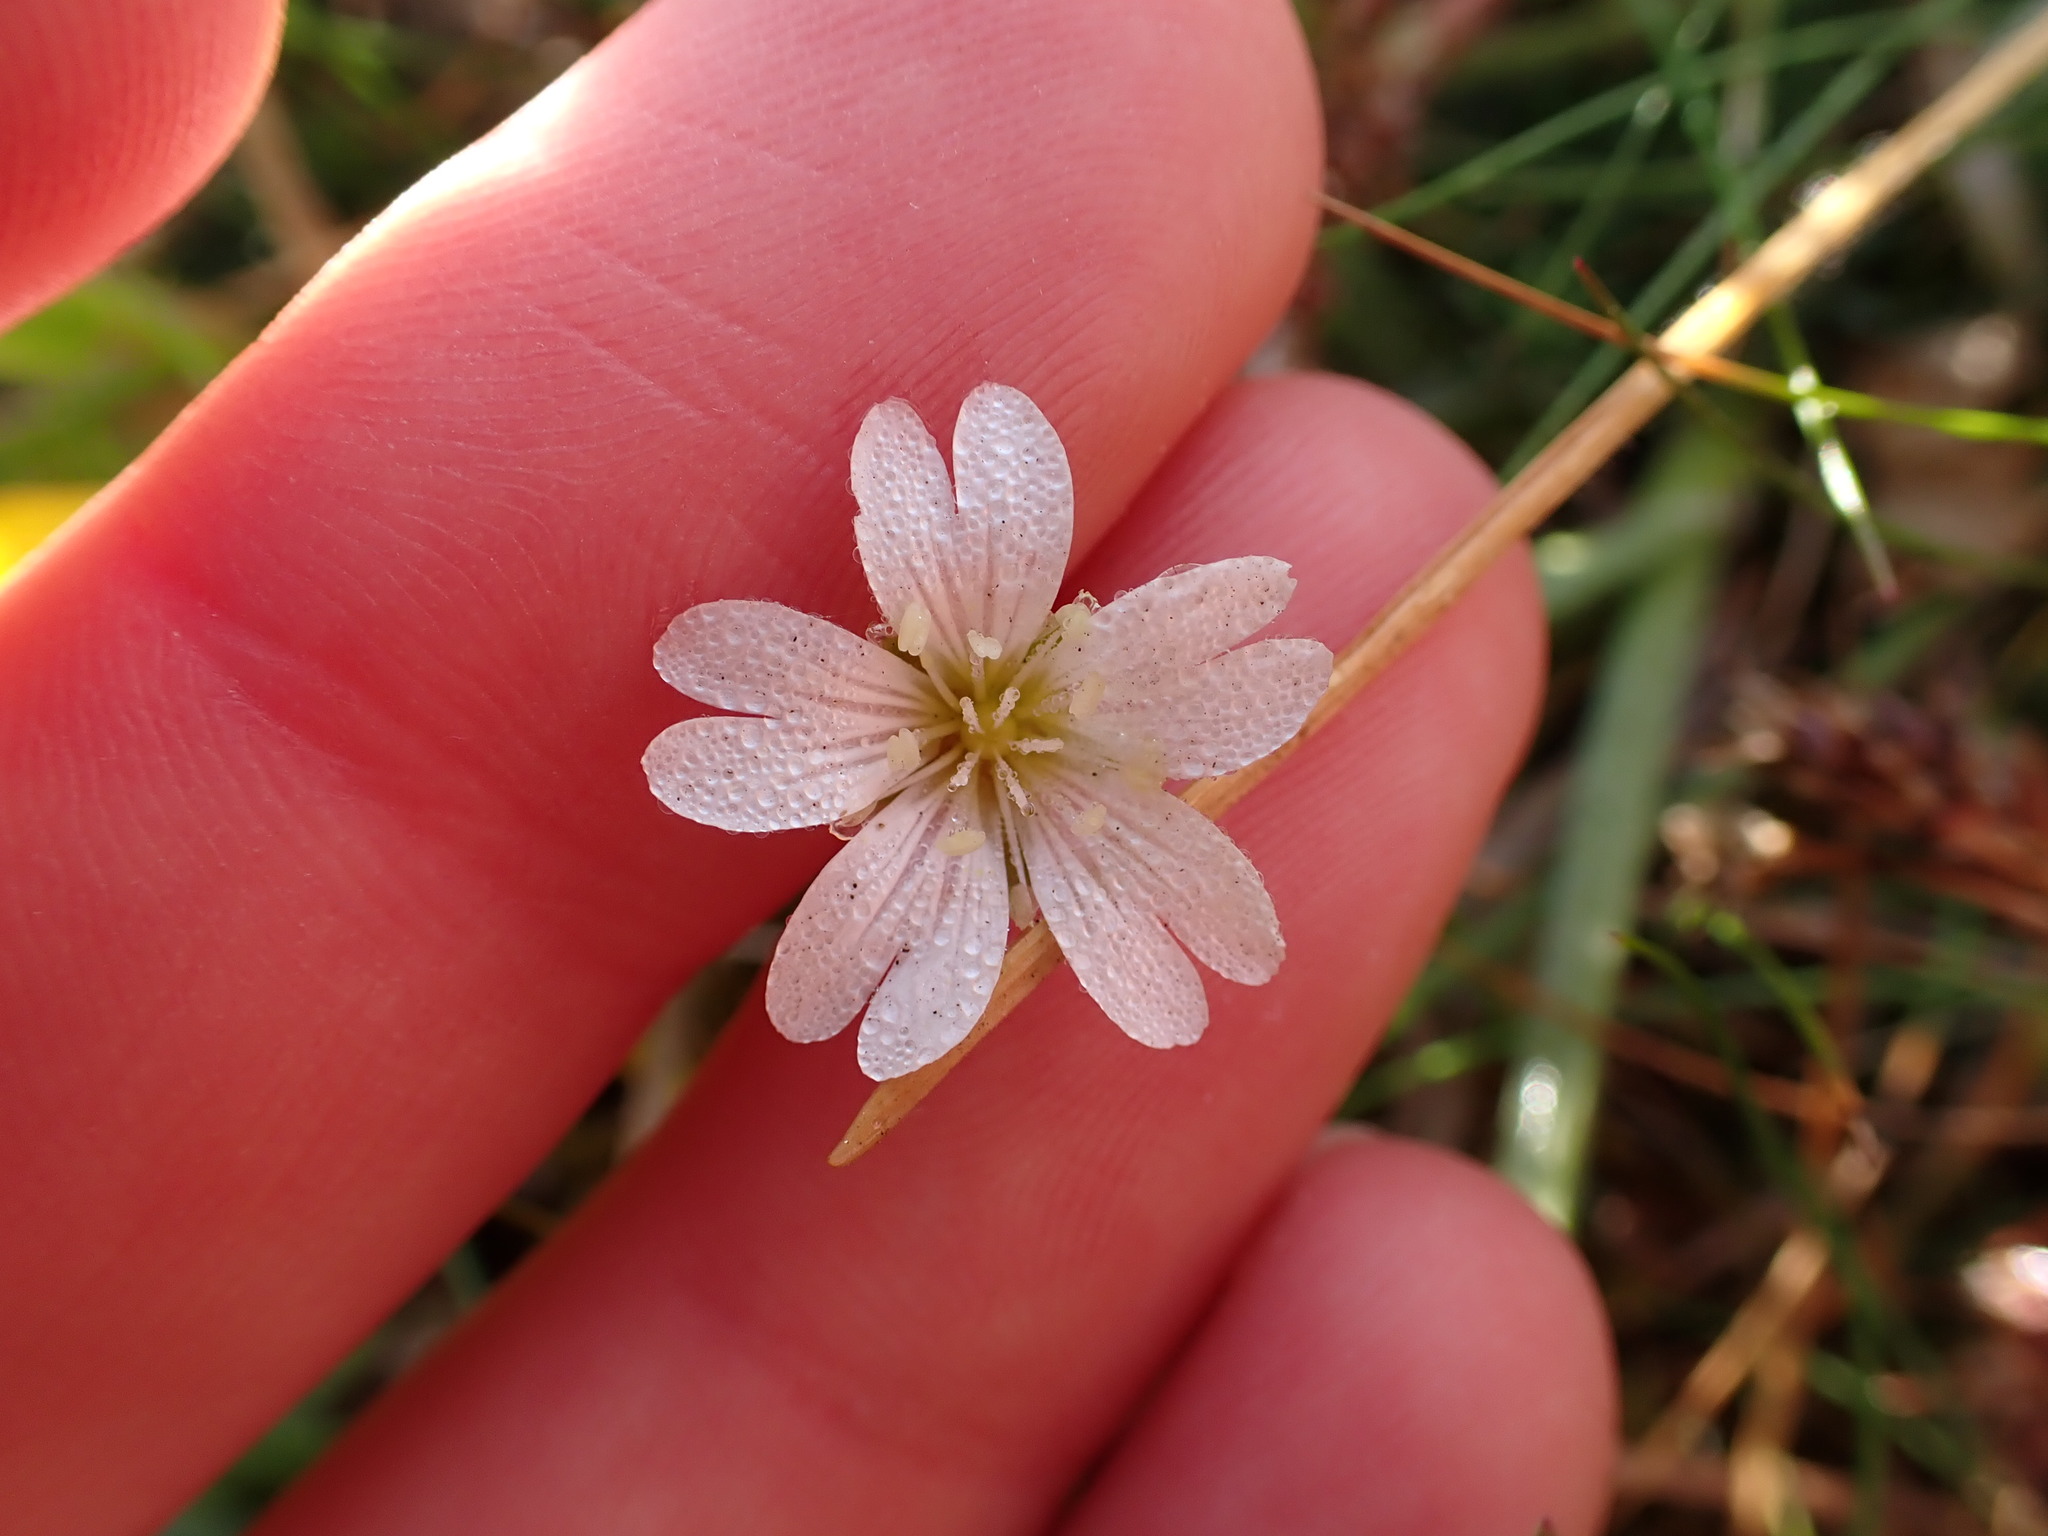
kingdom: Plantae
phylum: Tracheophyta
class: Magnoliopsida
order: Caryophyllales
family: Caryophyllaceae
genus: Cerastium
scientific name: Cerastium arvense
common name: Field mouse-ear
